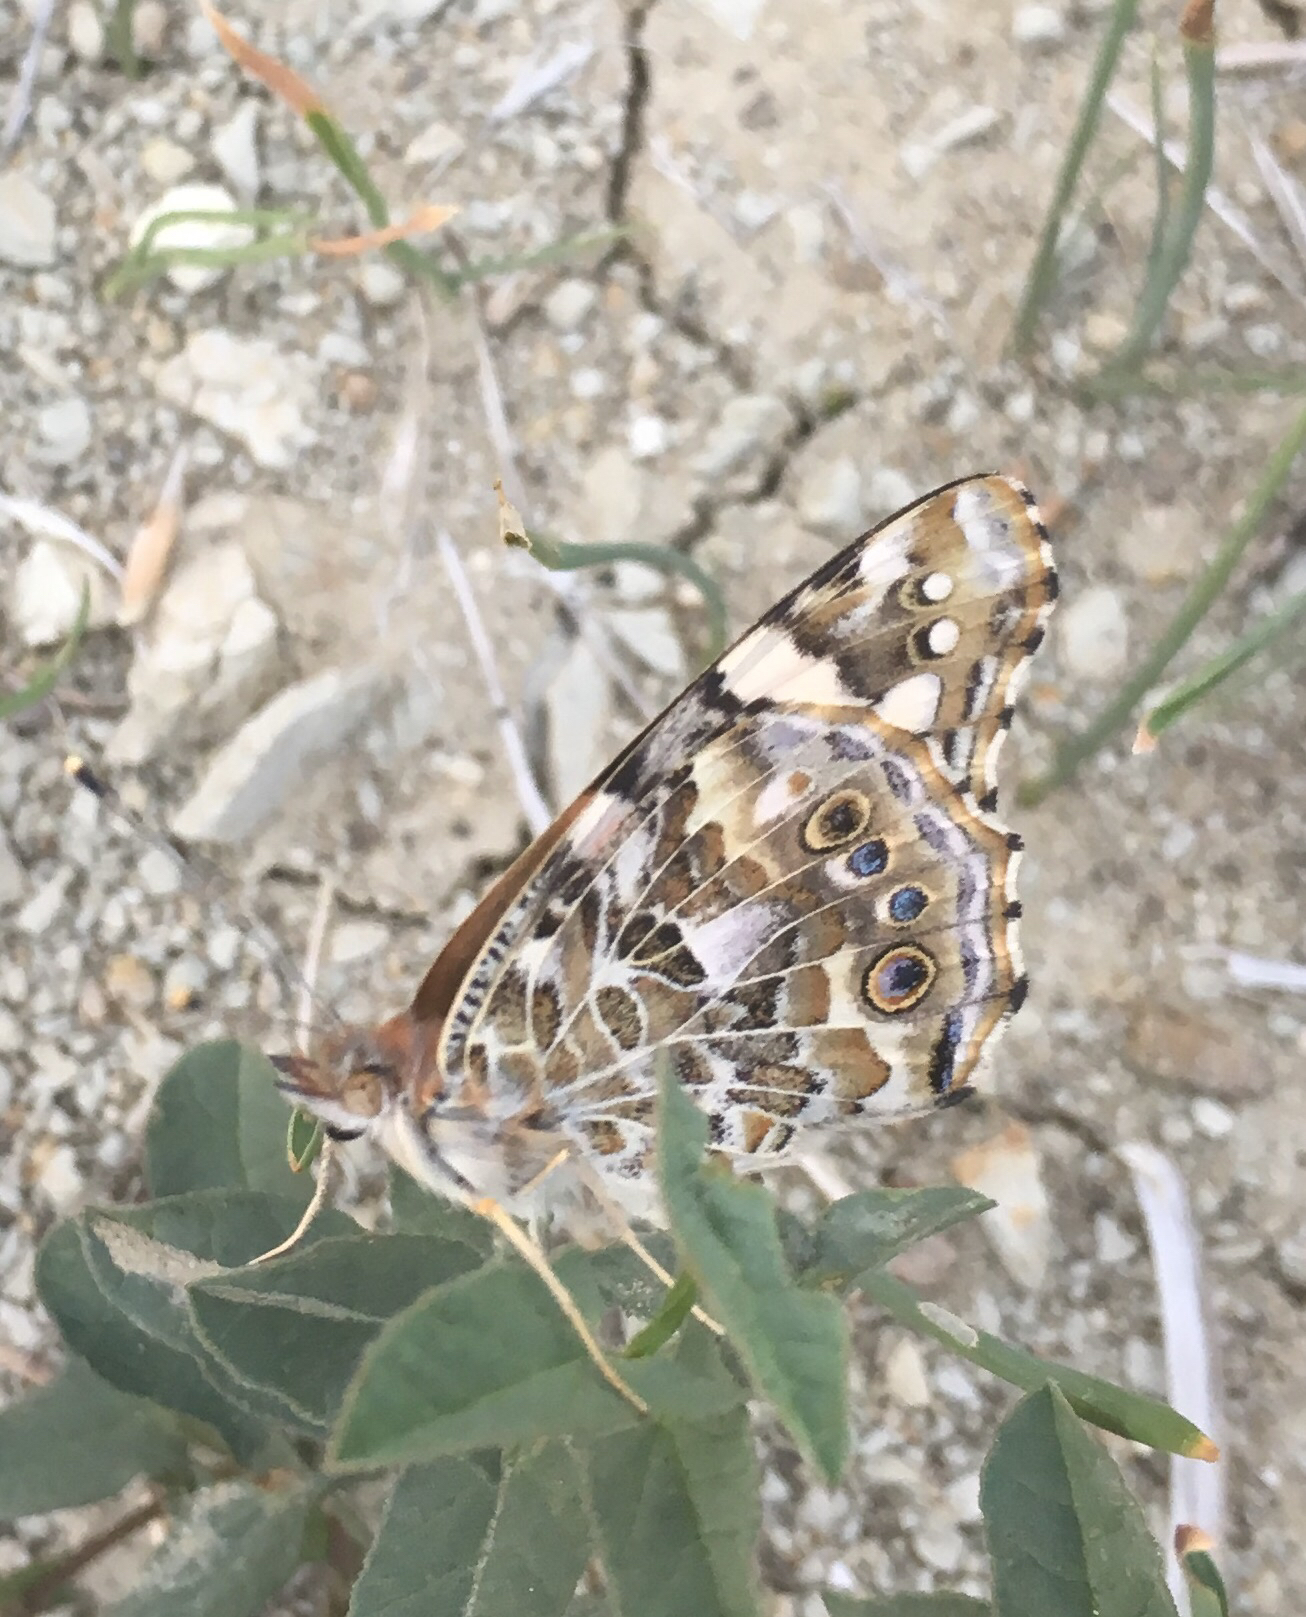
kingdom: Animalia
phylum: Arthropoda
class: Insecta
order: Lepidoptera
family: Nymphalidae
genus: Vanessa
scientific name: Vanessa cardui
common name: Painted lady
